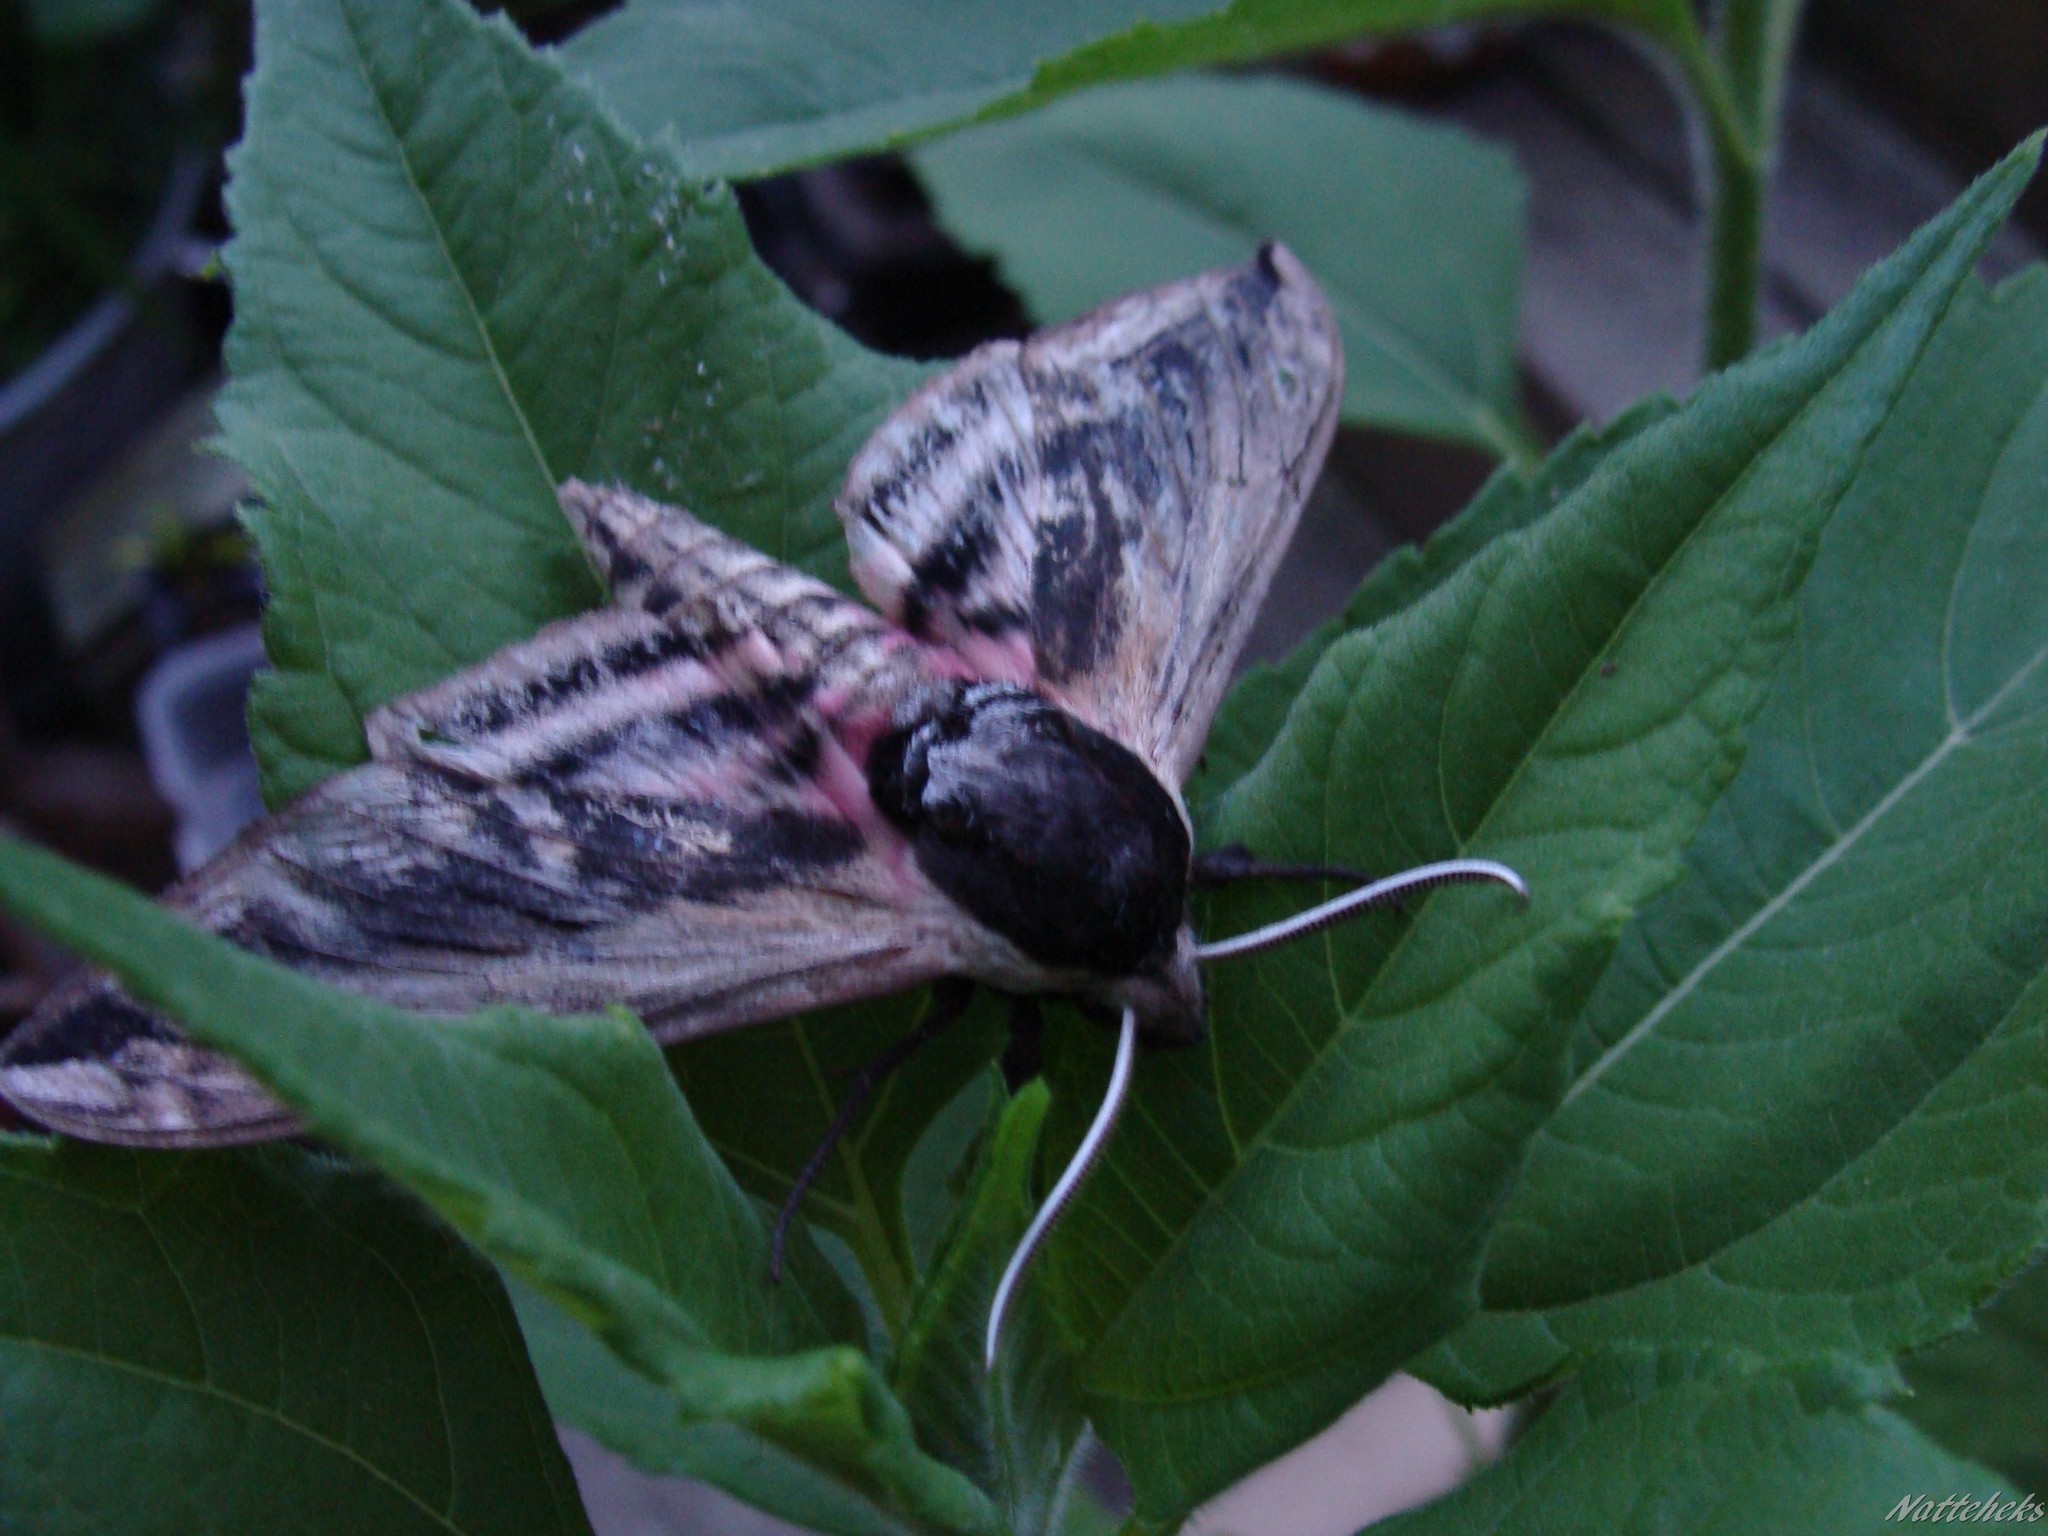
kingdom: Animalia
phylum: Arthropoda
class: Insecta
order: Lepidoptera
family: Sphingidae
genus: Sphinx
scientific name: Sphinx ligustri
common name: Privet hawk-moth
